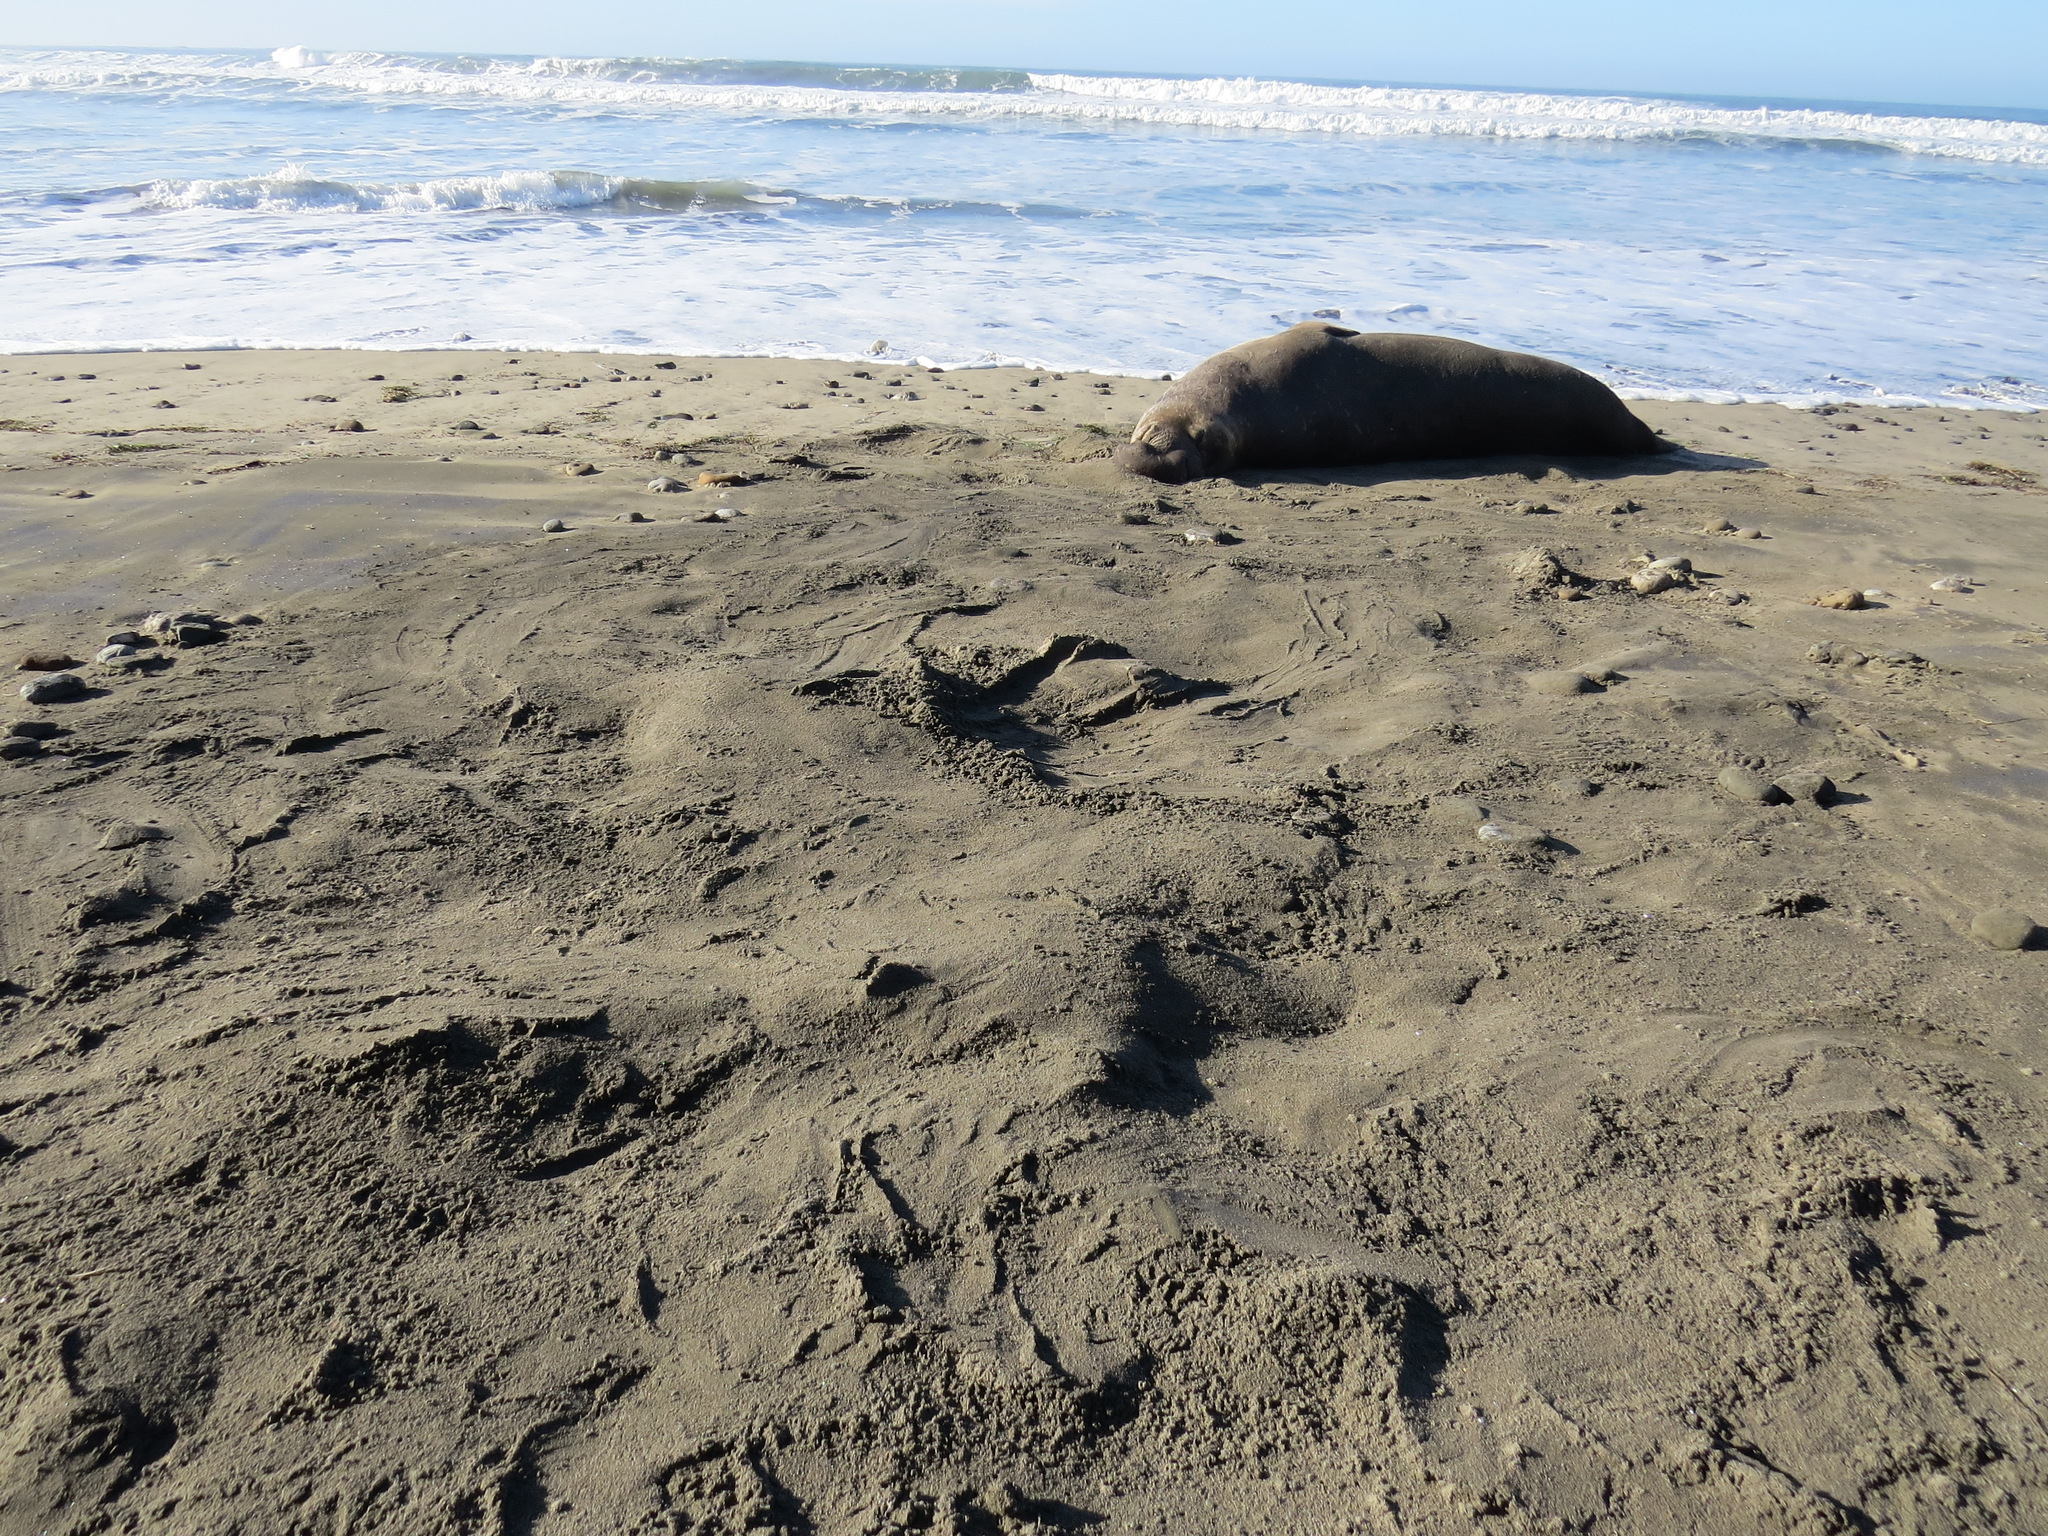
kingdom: Animalia
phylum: Chordata
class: Mammalia
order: Carnivora
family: Phocidae
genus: Mirounga
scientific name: Mirounga angustirostris
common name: Northern elephant seal
